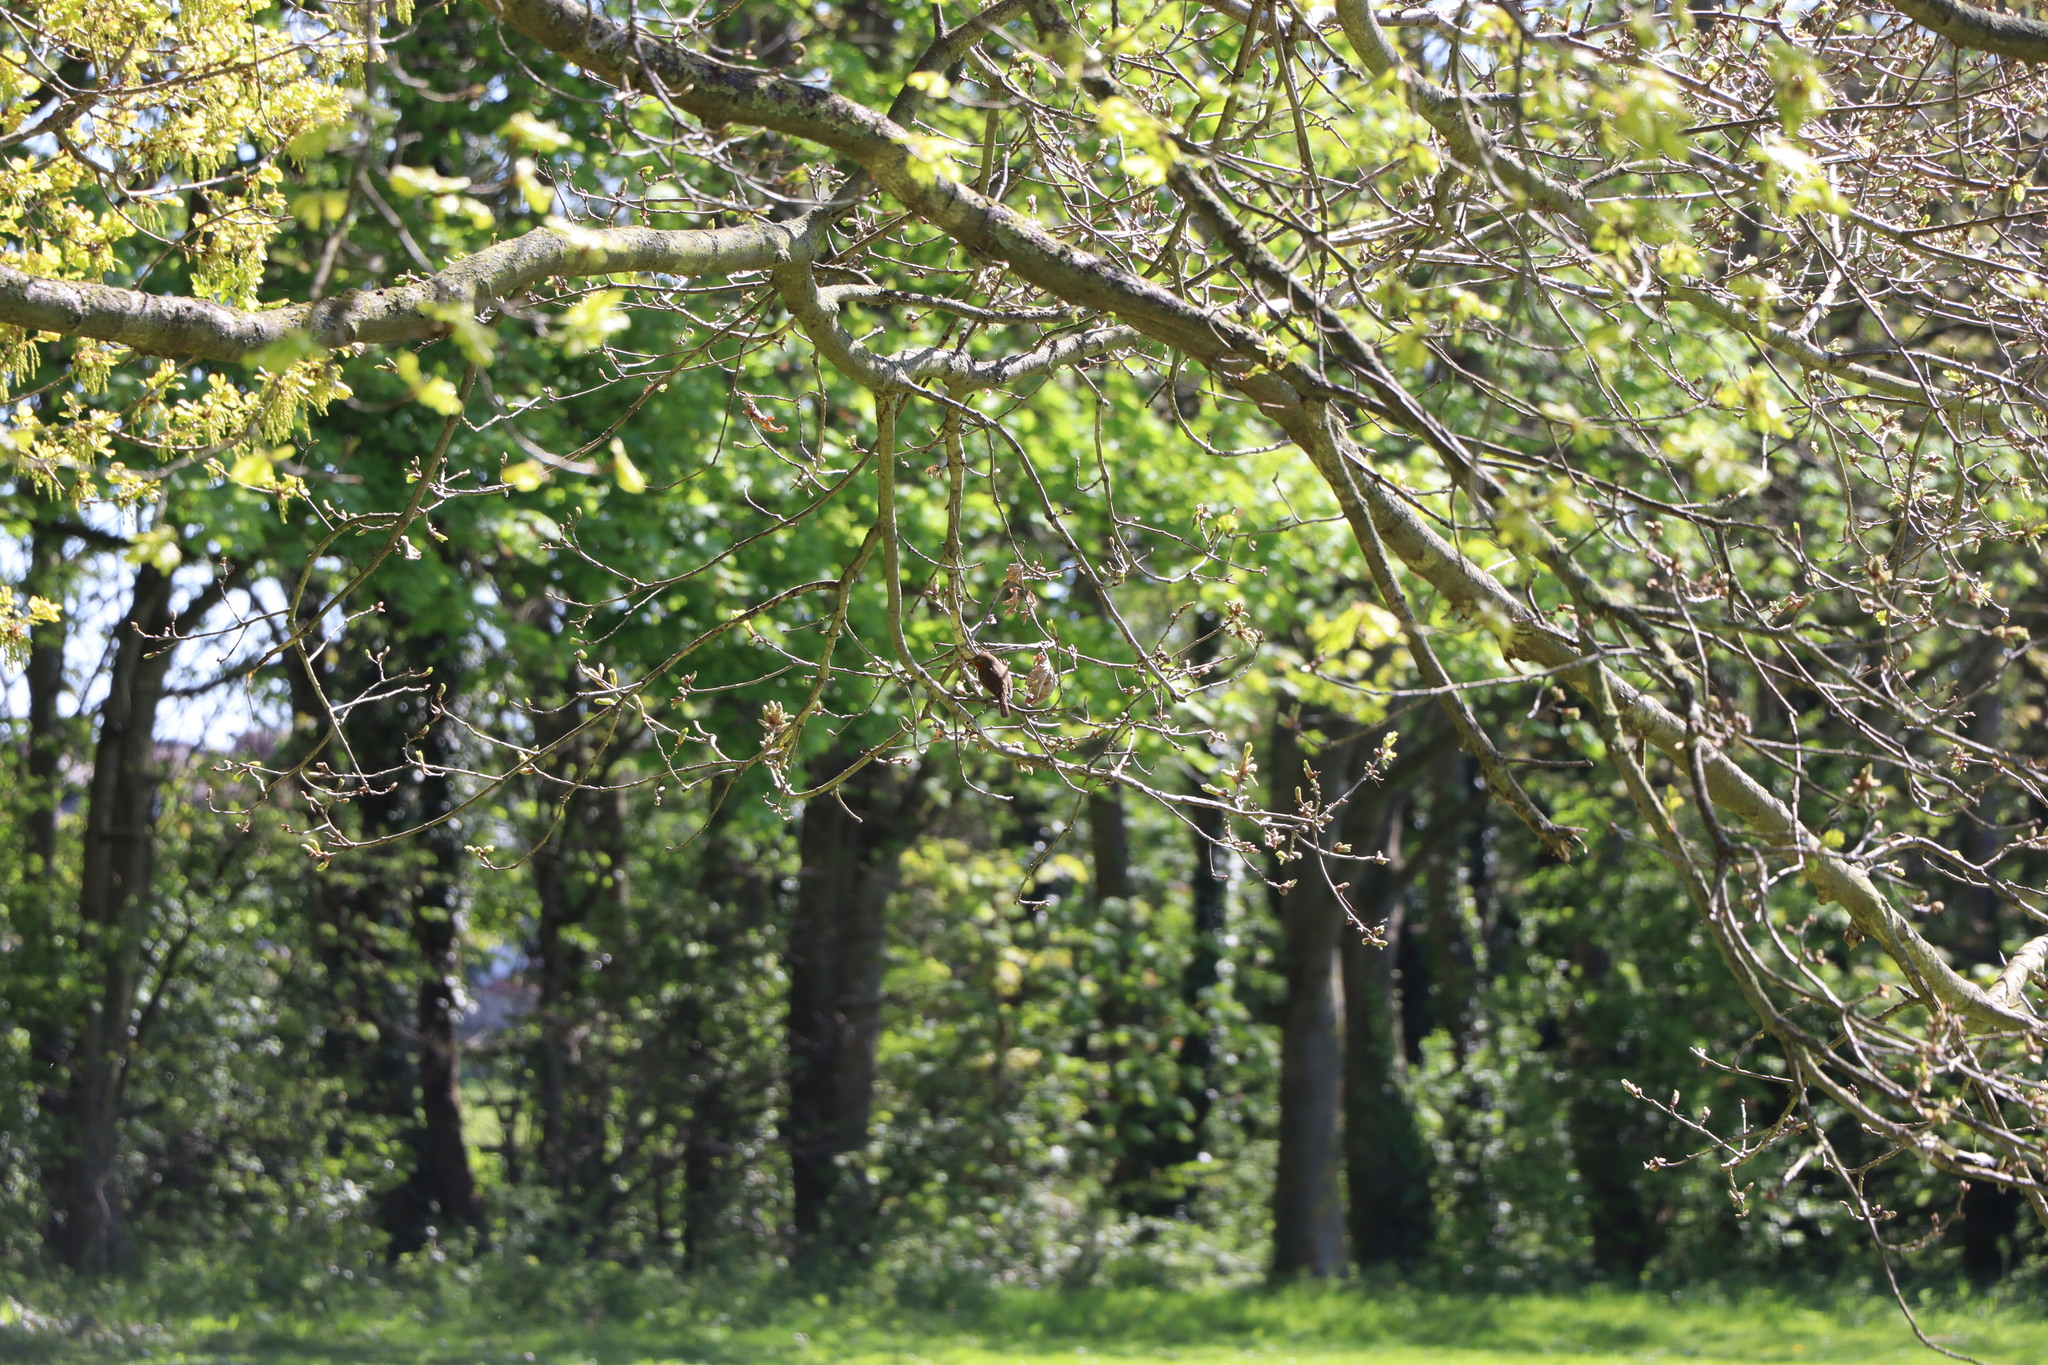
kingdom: Animalia
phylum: Chordata
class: Aves
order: Passeriformes
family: Muscicapidae
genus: Erithacus
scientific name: Erithacus rubecula
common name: European robin
